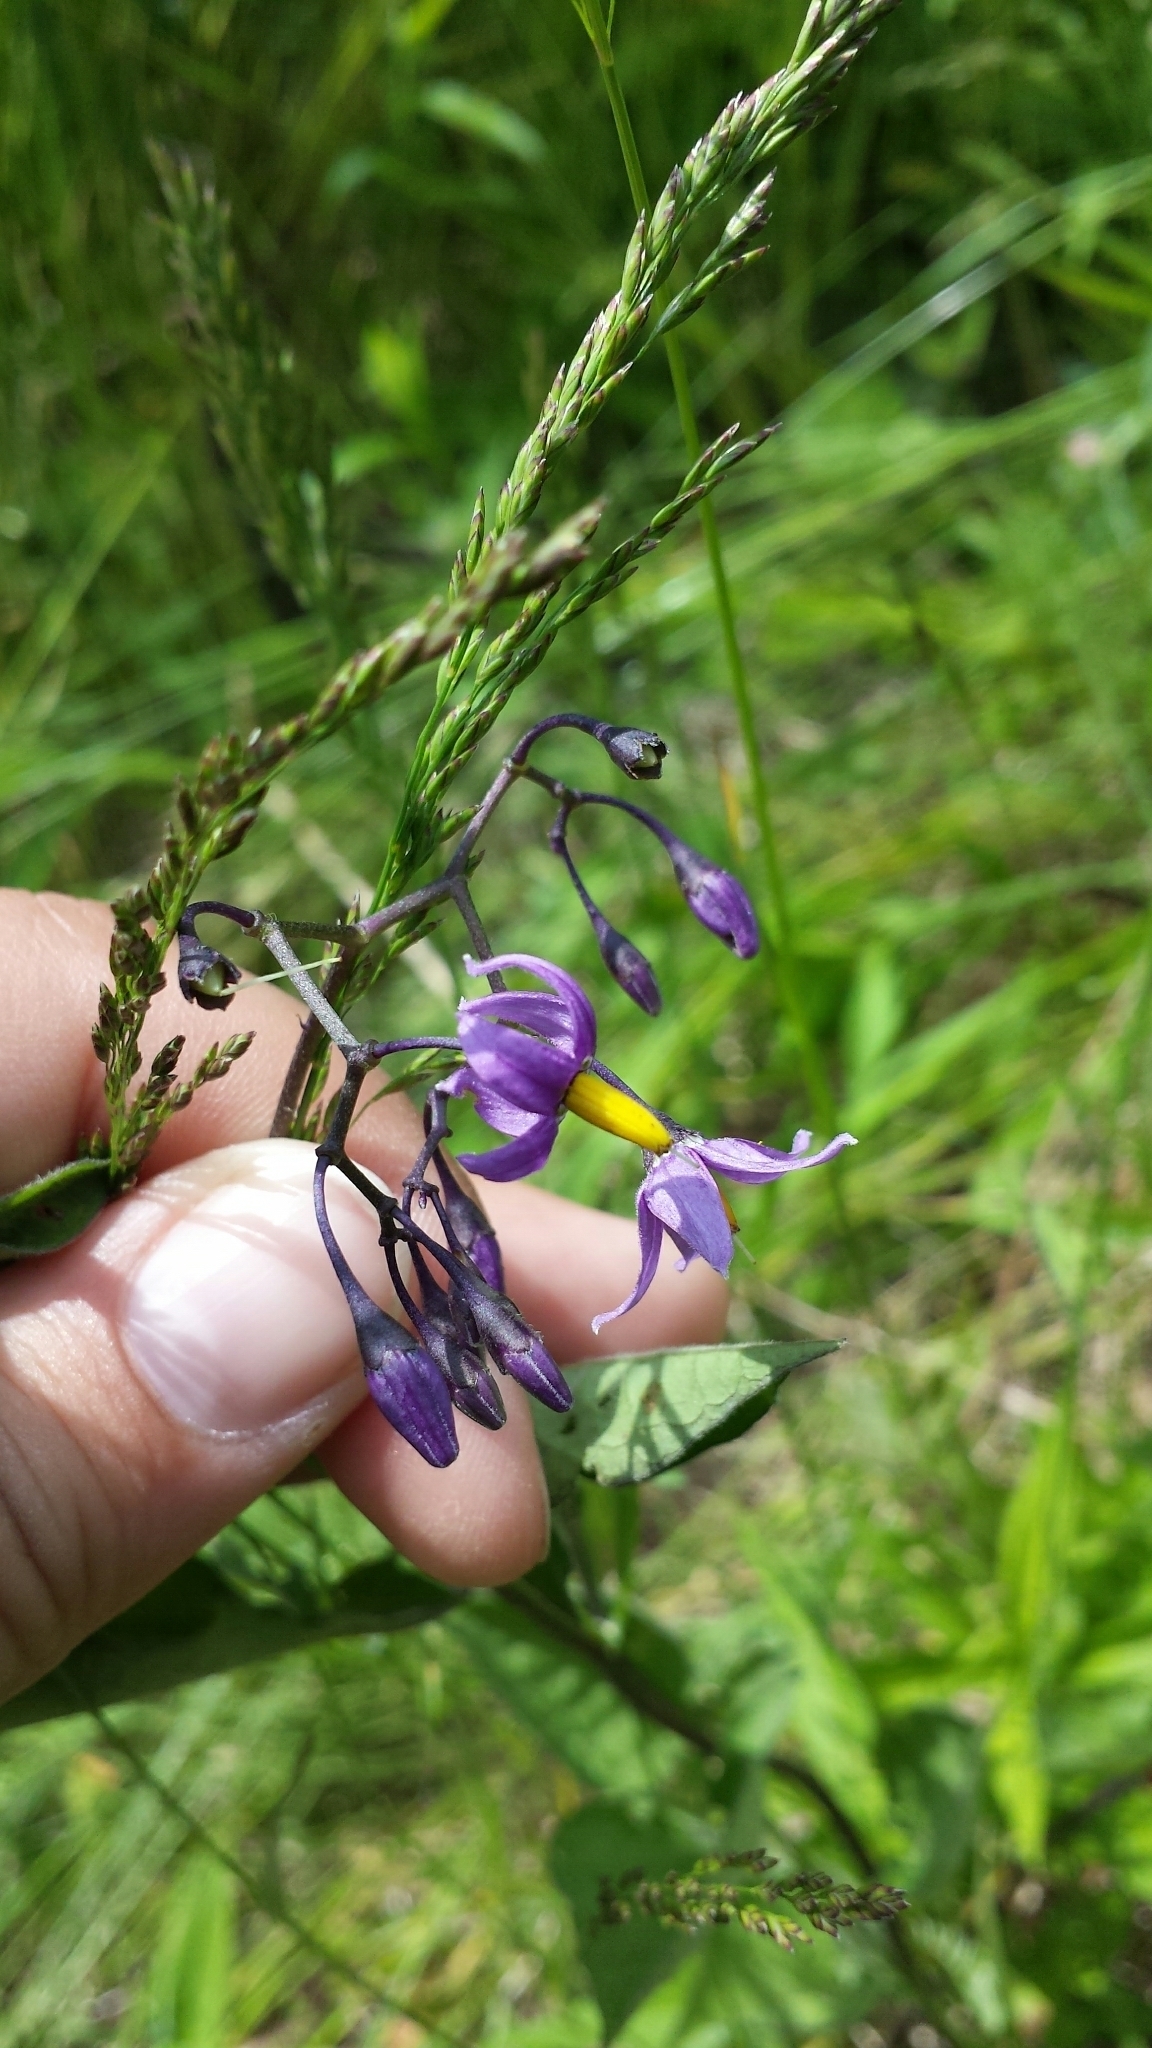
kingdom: Plantae
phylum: Tracheophyta
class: Magnoliopsida
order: Solanales
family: Solanaceae
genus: Solanum
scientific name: Solanum dulcamara
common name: Climbing nightshade
